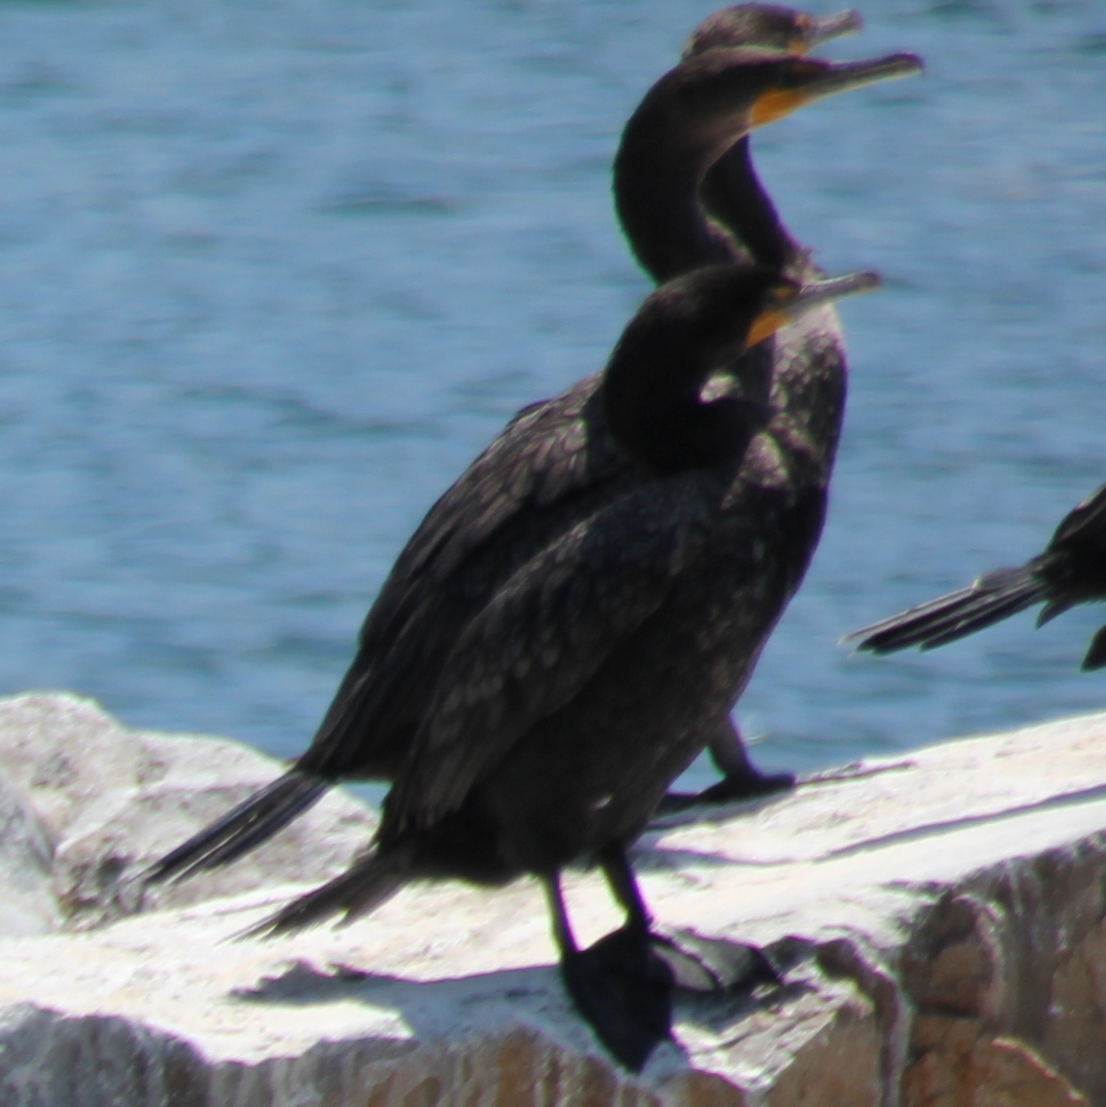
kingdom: Animalia
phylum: Chordata
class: Aves
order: Suliformes
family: Phalacrocoracidae
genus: Phalacrocorax
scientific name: Phalacrocorax auritus
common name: Double-crested cormorant
